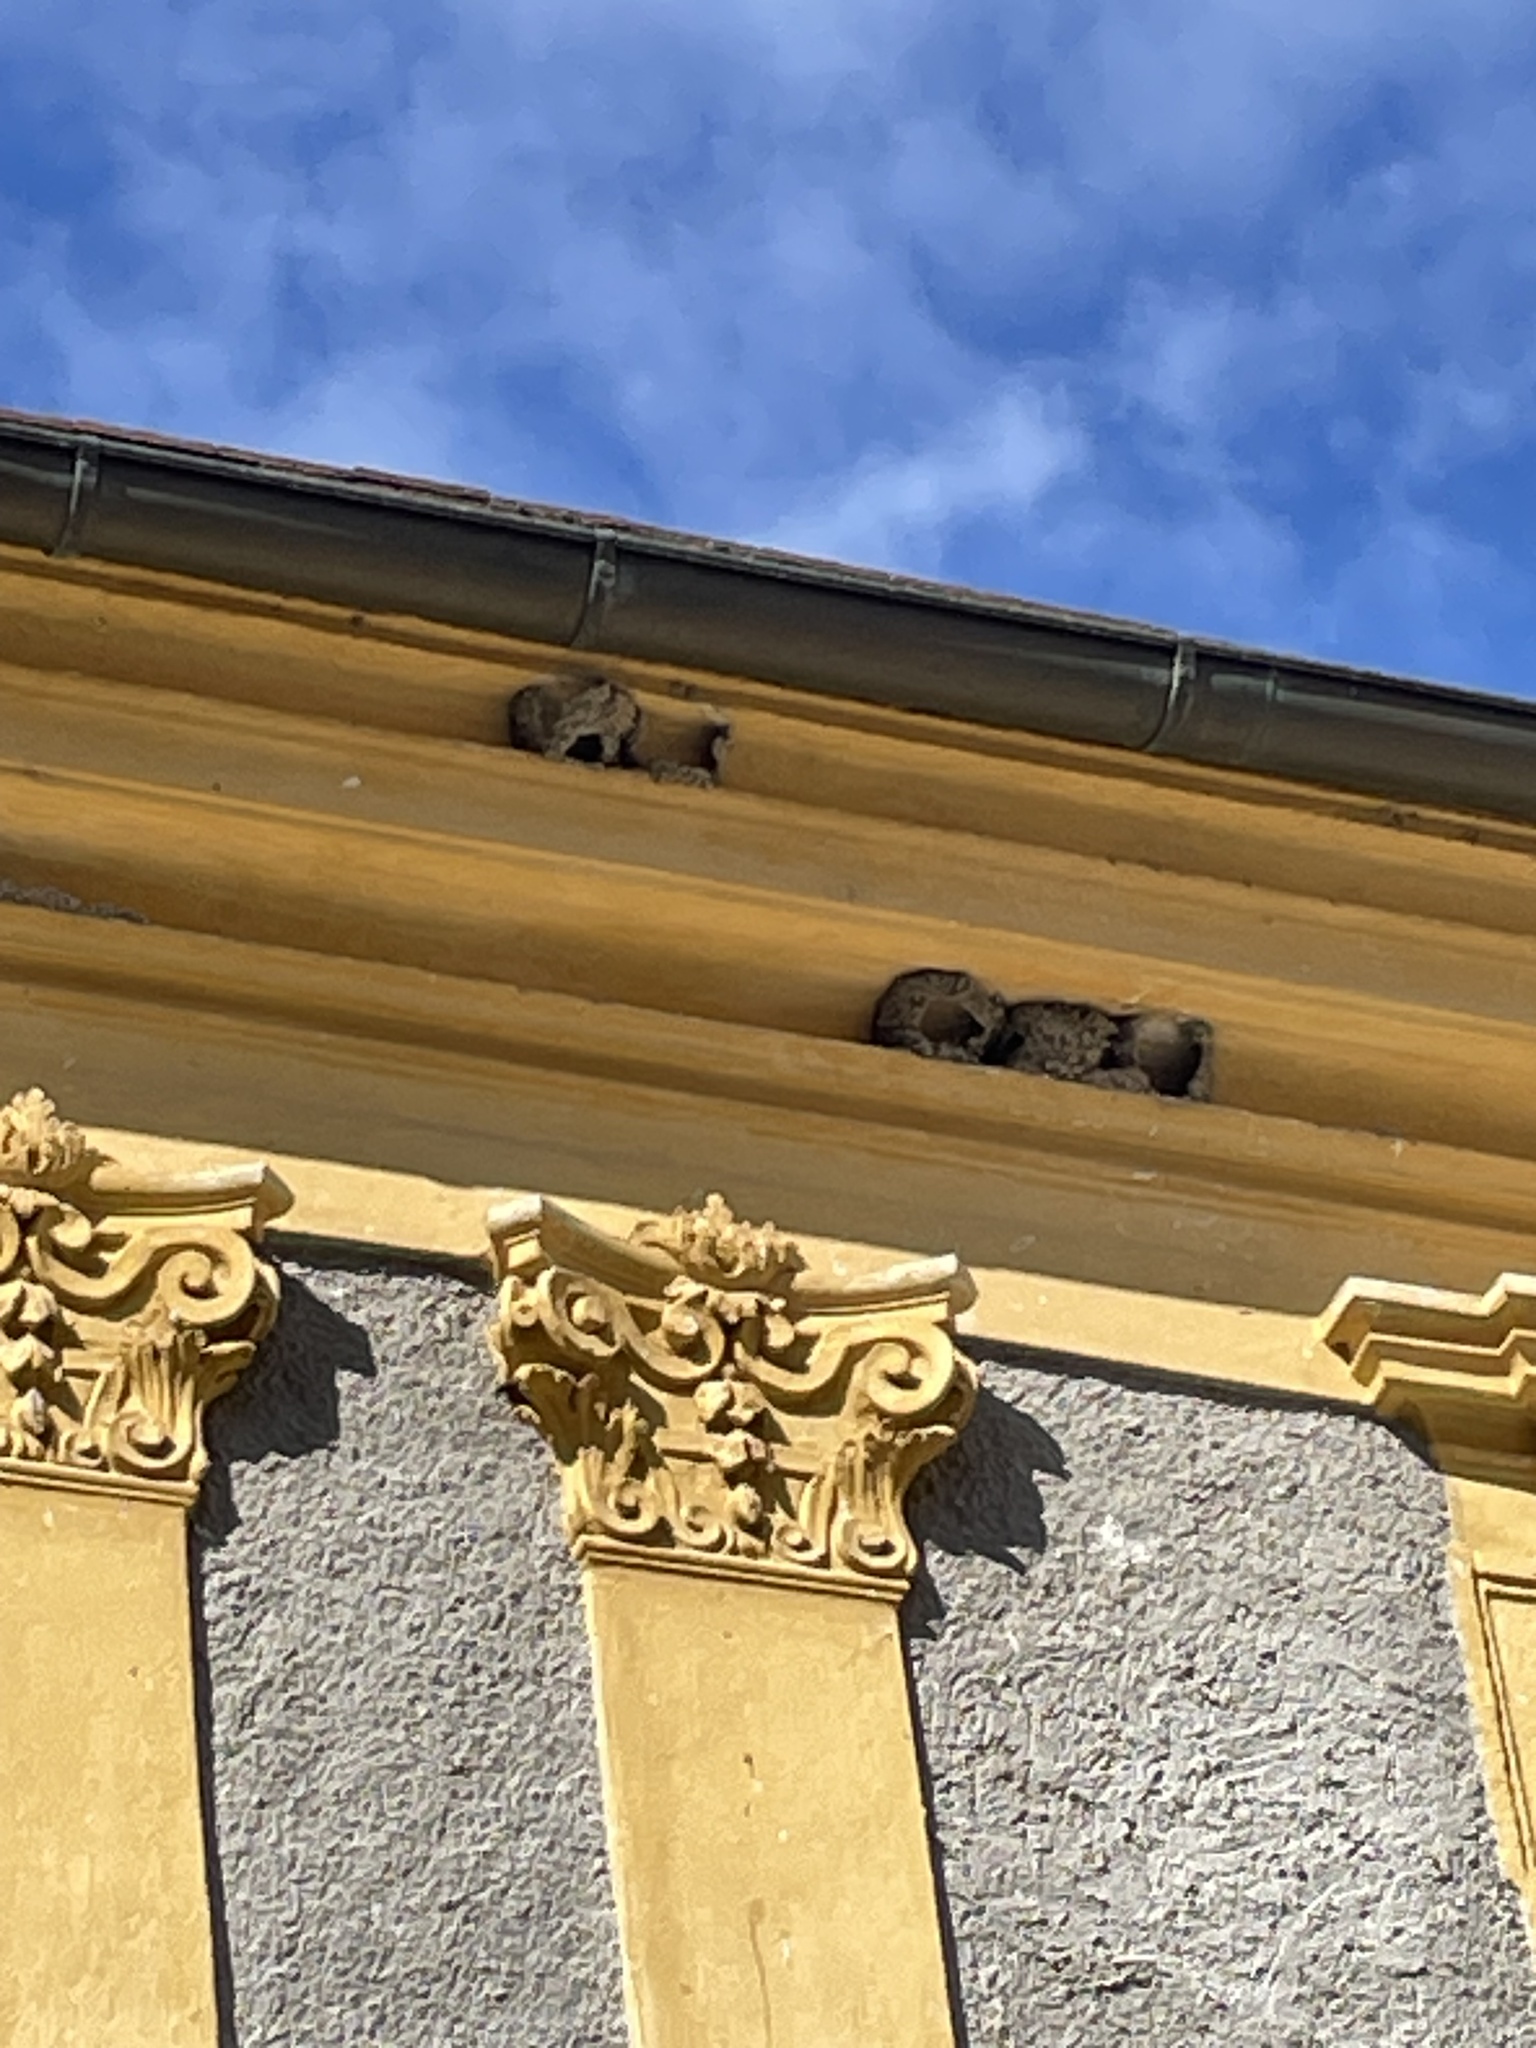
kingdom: Animalia
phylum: Chordata
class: Aves
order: Passeriformes
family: Hirundinidae
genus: Delichon
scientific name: Delichon urbicum
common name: Common house martin
